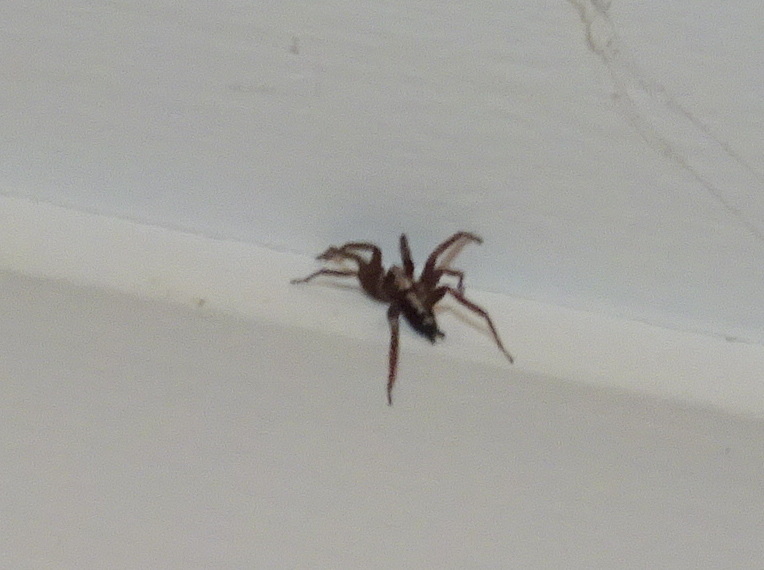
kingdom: Animalia
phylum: Arthropoda
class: Arachnida
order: Araneae
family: Gnaphosidae
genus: Herpyllus
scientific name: Herpyllus ecclesiasticus
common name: Eastern parson spider
